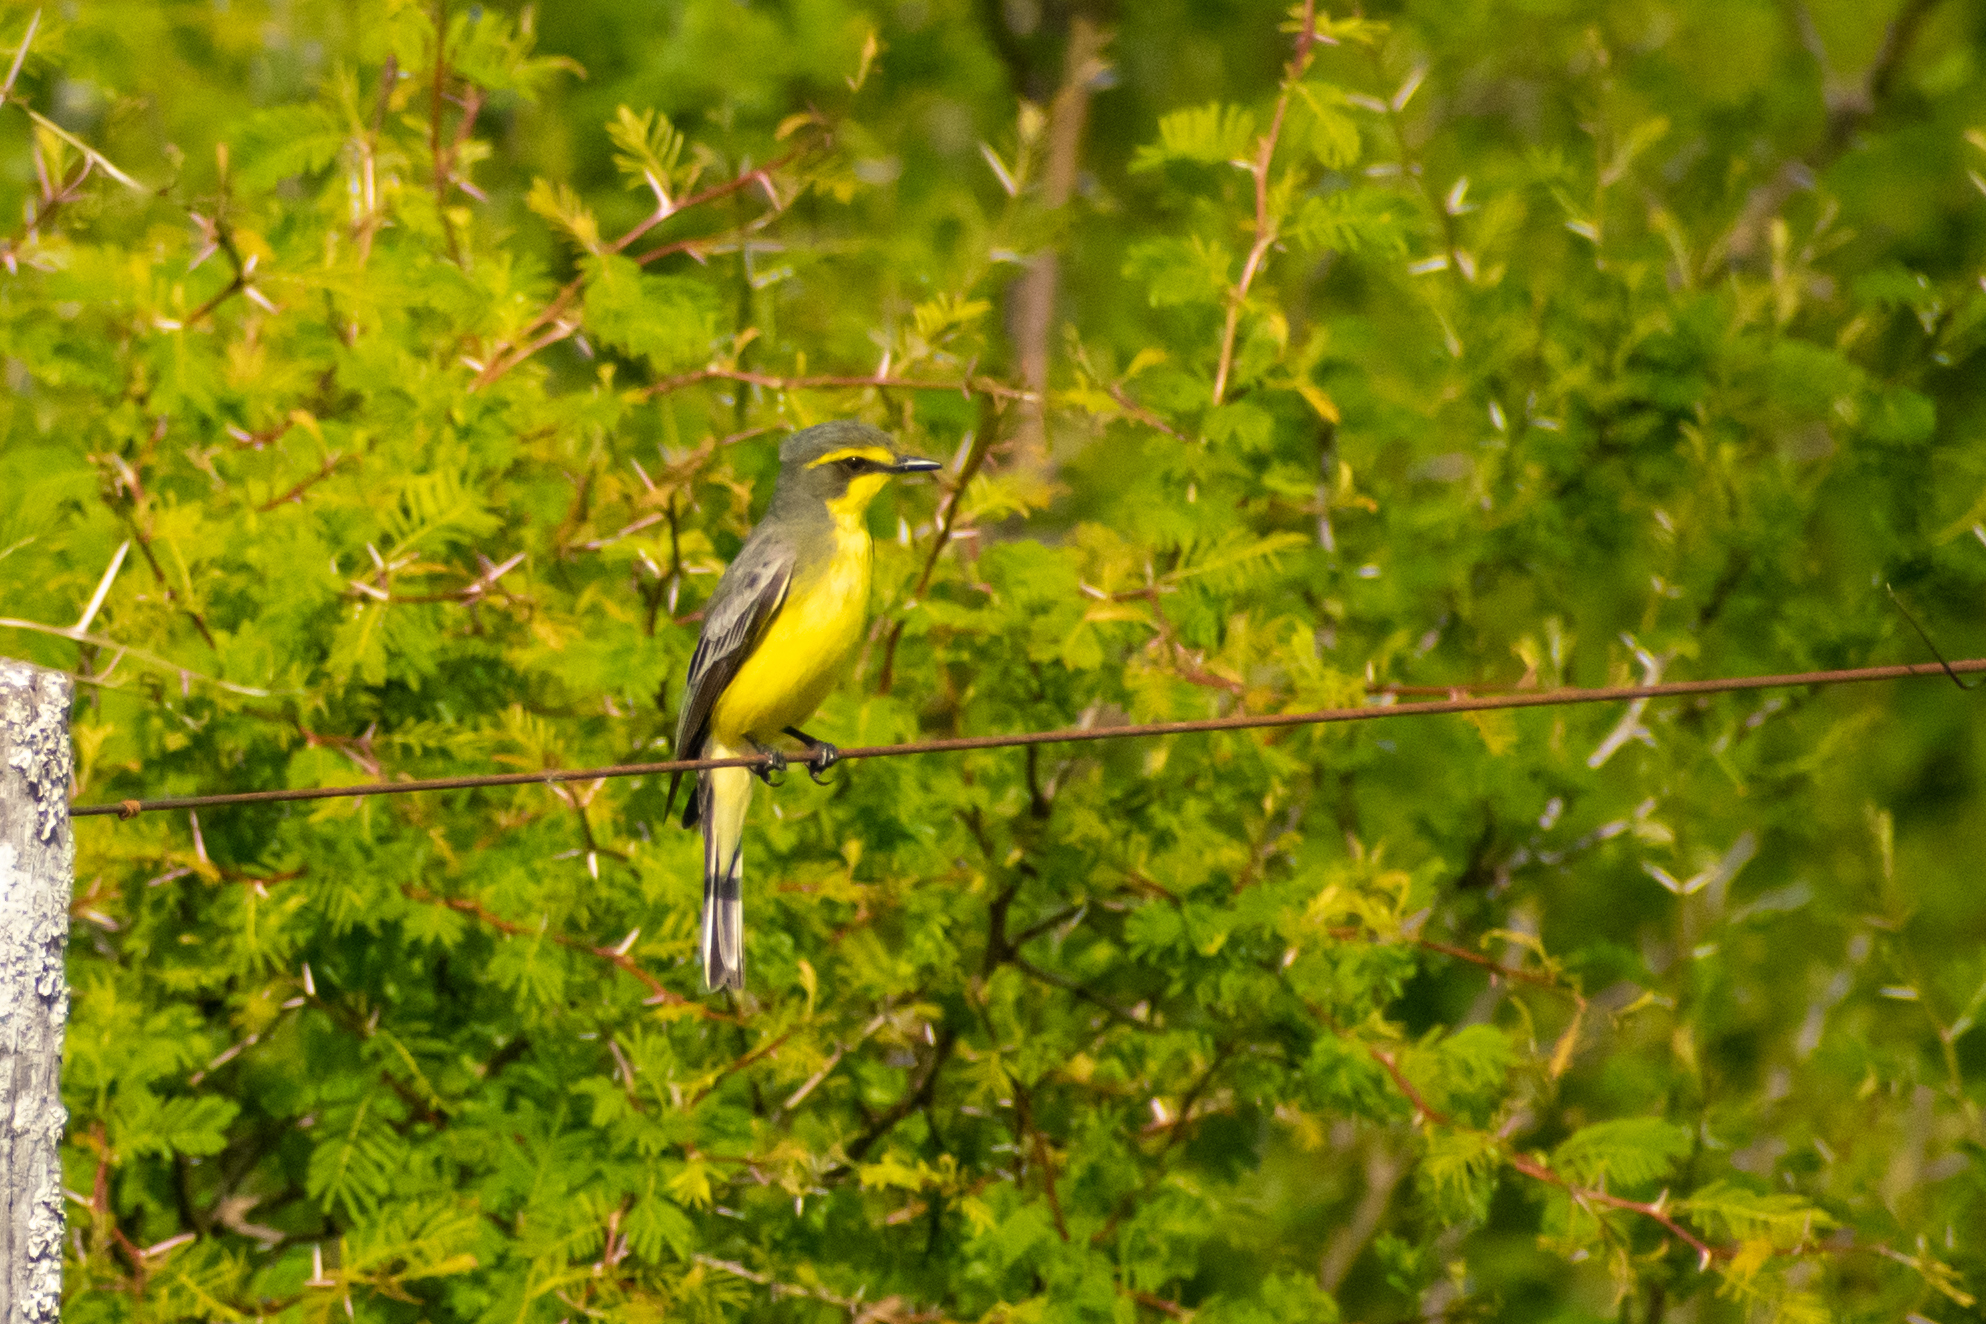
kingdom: Animalia
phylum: Chordata
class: Aves
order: Passeriformes
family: Tyrannidae
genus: Satrapa
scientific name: Satrapa icterophrys
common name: Yellow-browed tyrant
